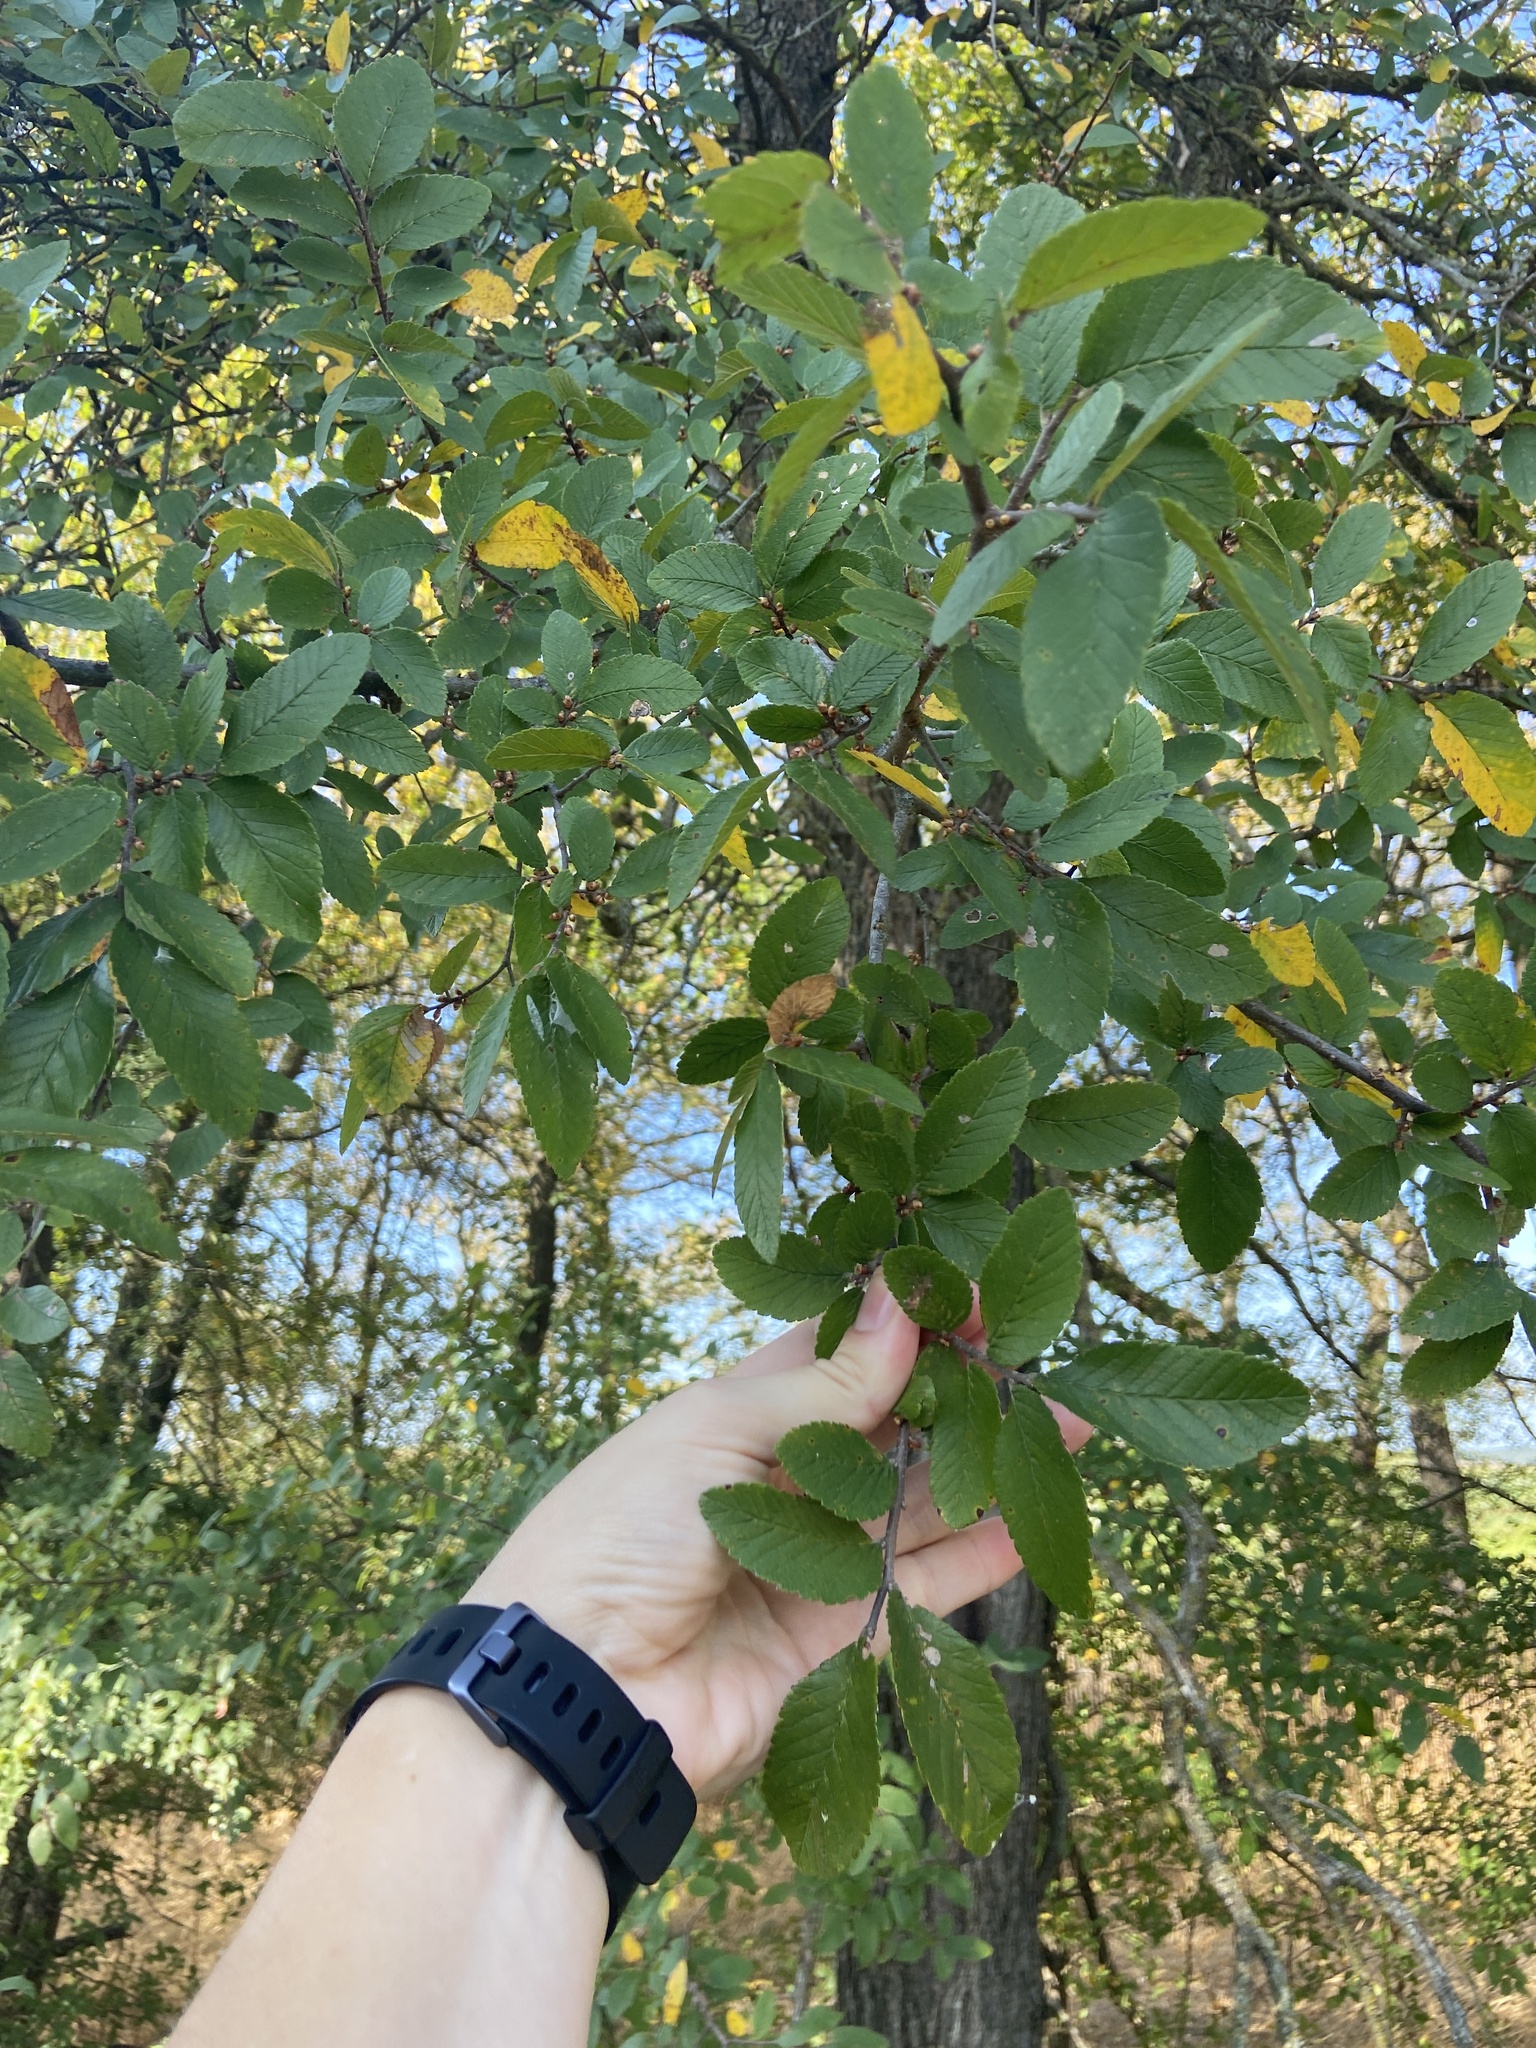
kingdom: Plantae
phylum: Tracheophyta
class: Magnoliopsida
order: Rosales
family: Ulmaceae
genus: Ulmus
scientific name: Ulmus crassifolia
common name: Basket elm
